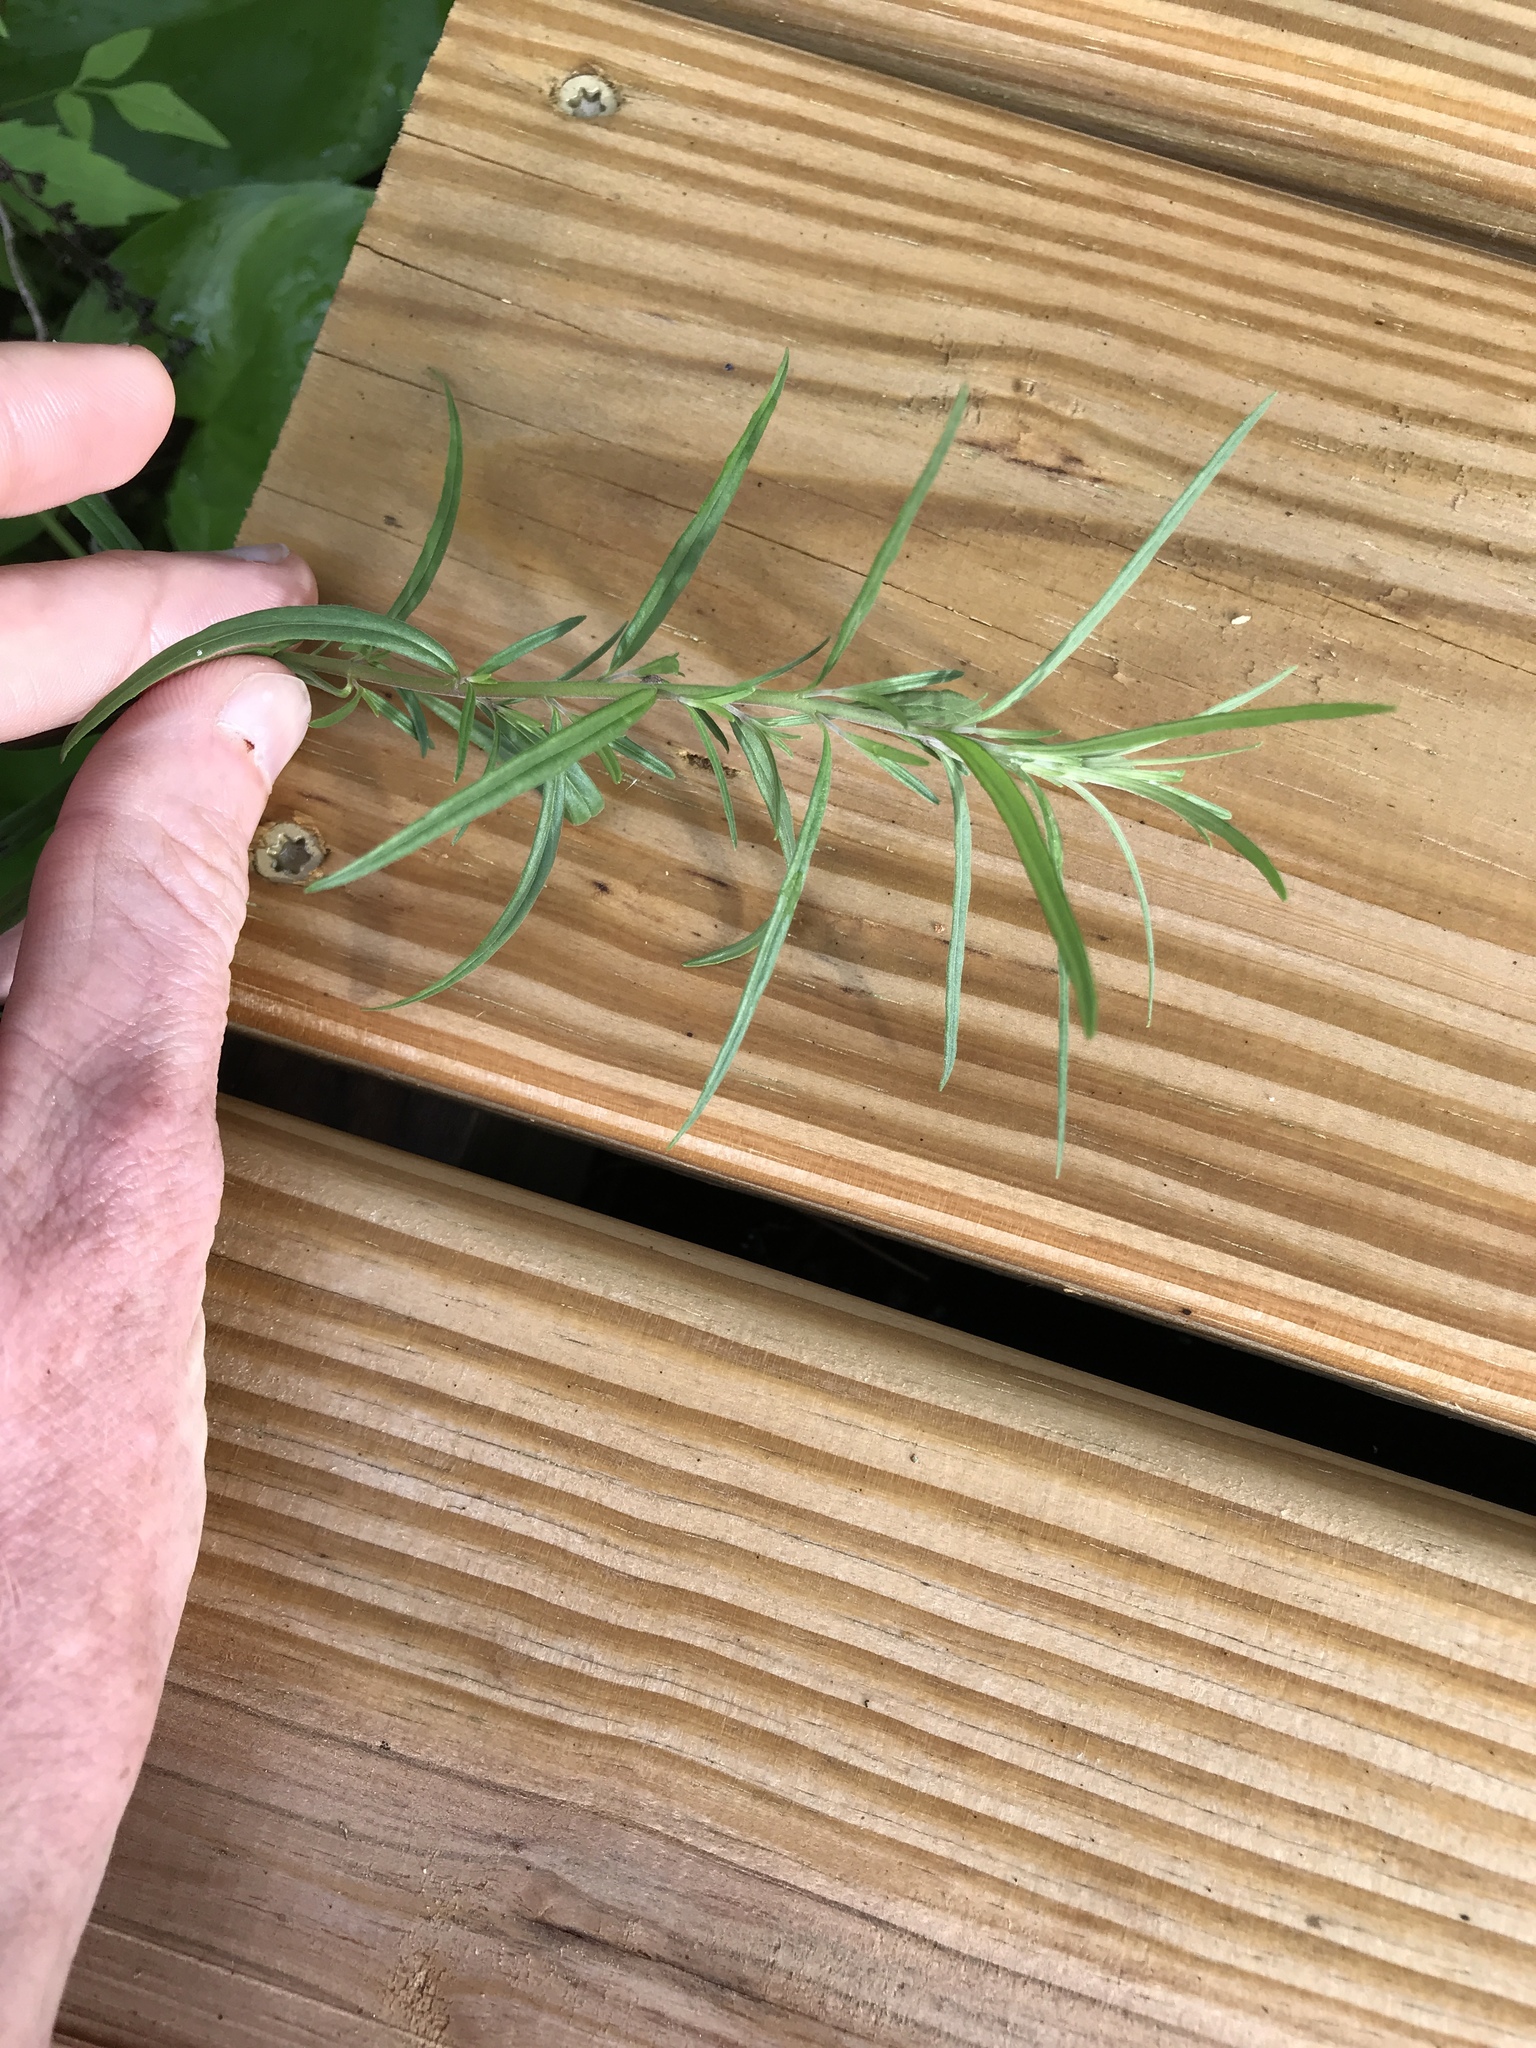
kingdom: Plantae
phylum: Tracheophyta
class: Magnoliopsida
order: Lamiales
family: Plantaginaceae
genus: Linaria
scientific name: Linaria vulgaris
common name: Butter and eggs
